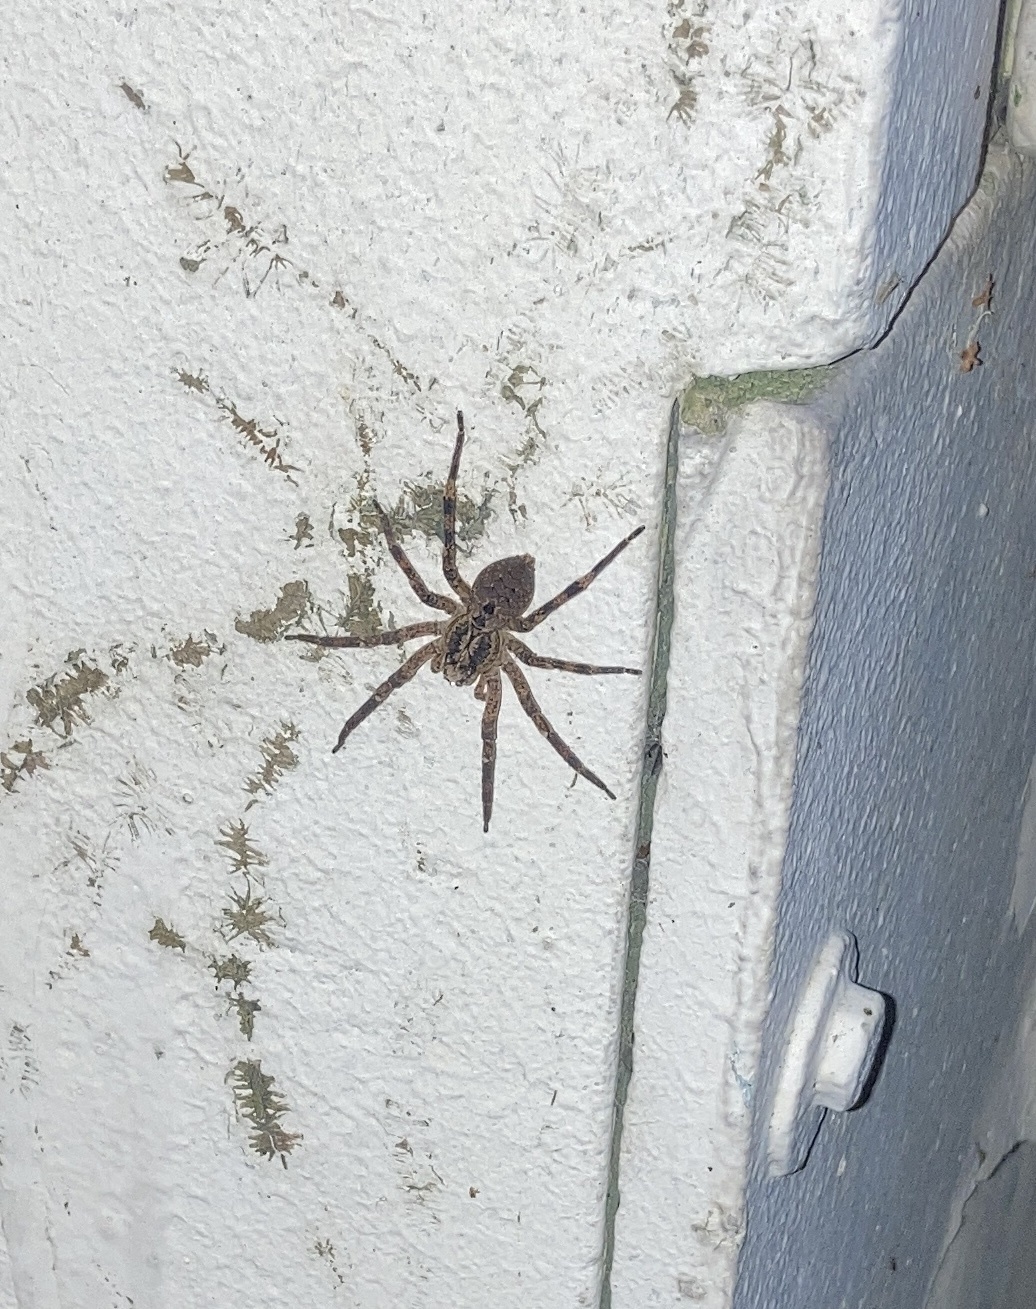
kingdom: Animalia
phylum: Arthropoda
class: Arachnida
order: Araneae
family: Zoropsidae
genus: Zoropsis
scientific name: Zoropsis spinimana
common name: Zoropsid spider
